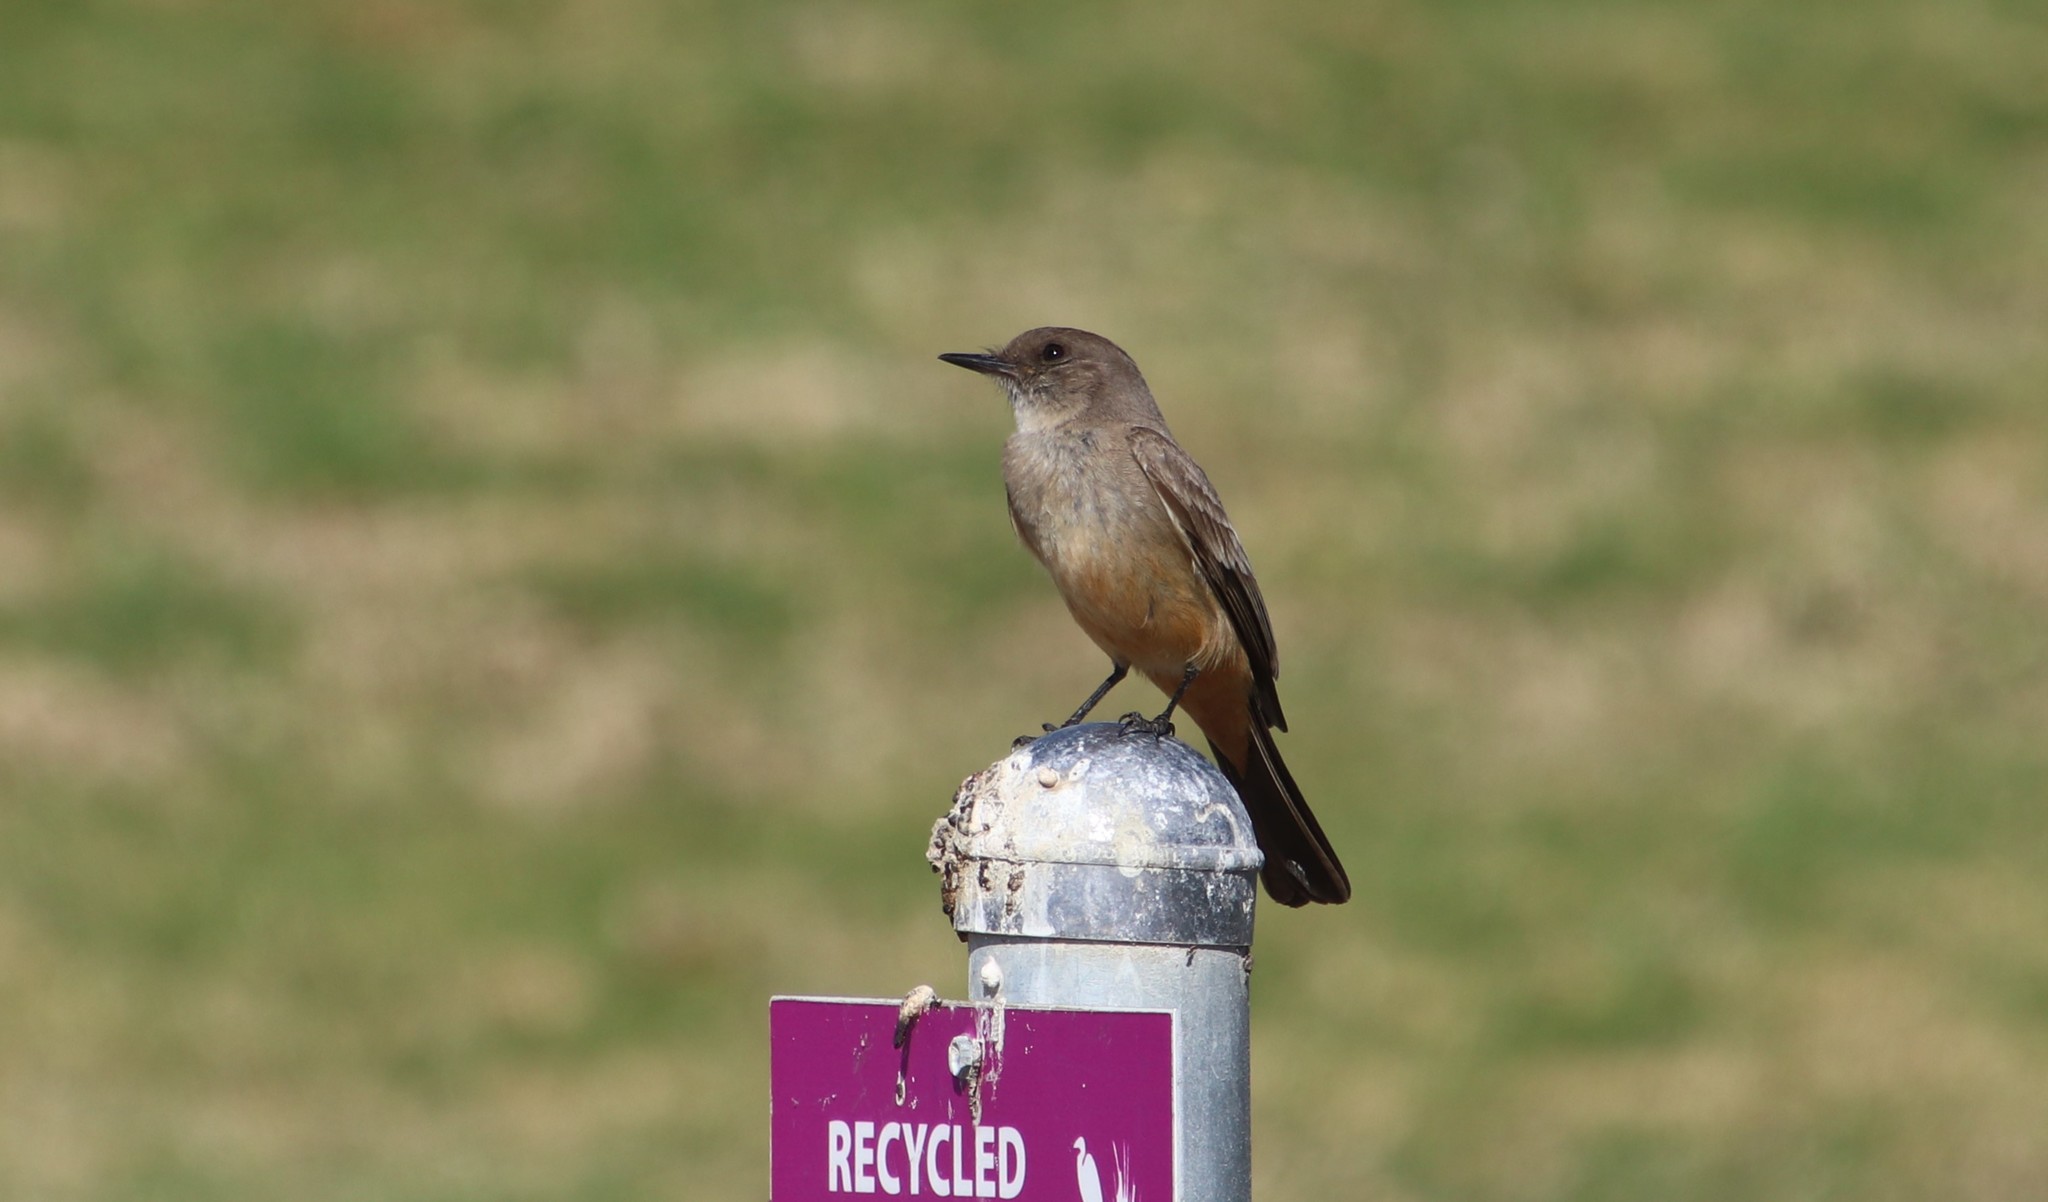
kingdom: Animalia
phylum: Chordata
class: Aves
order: Passeriformes
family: Tyrannidae
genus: Sayornis
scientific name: Sayornis saya
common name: Say's phoebe
